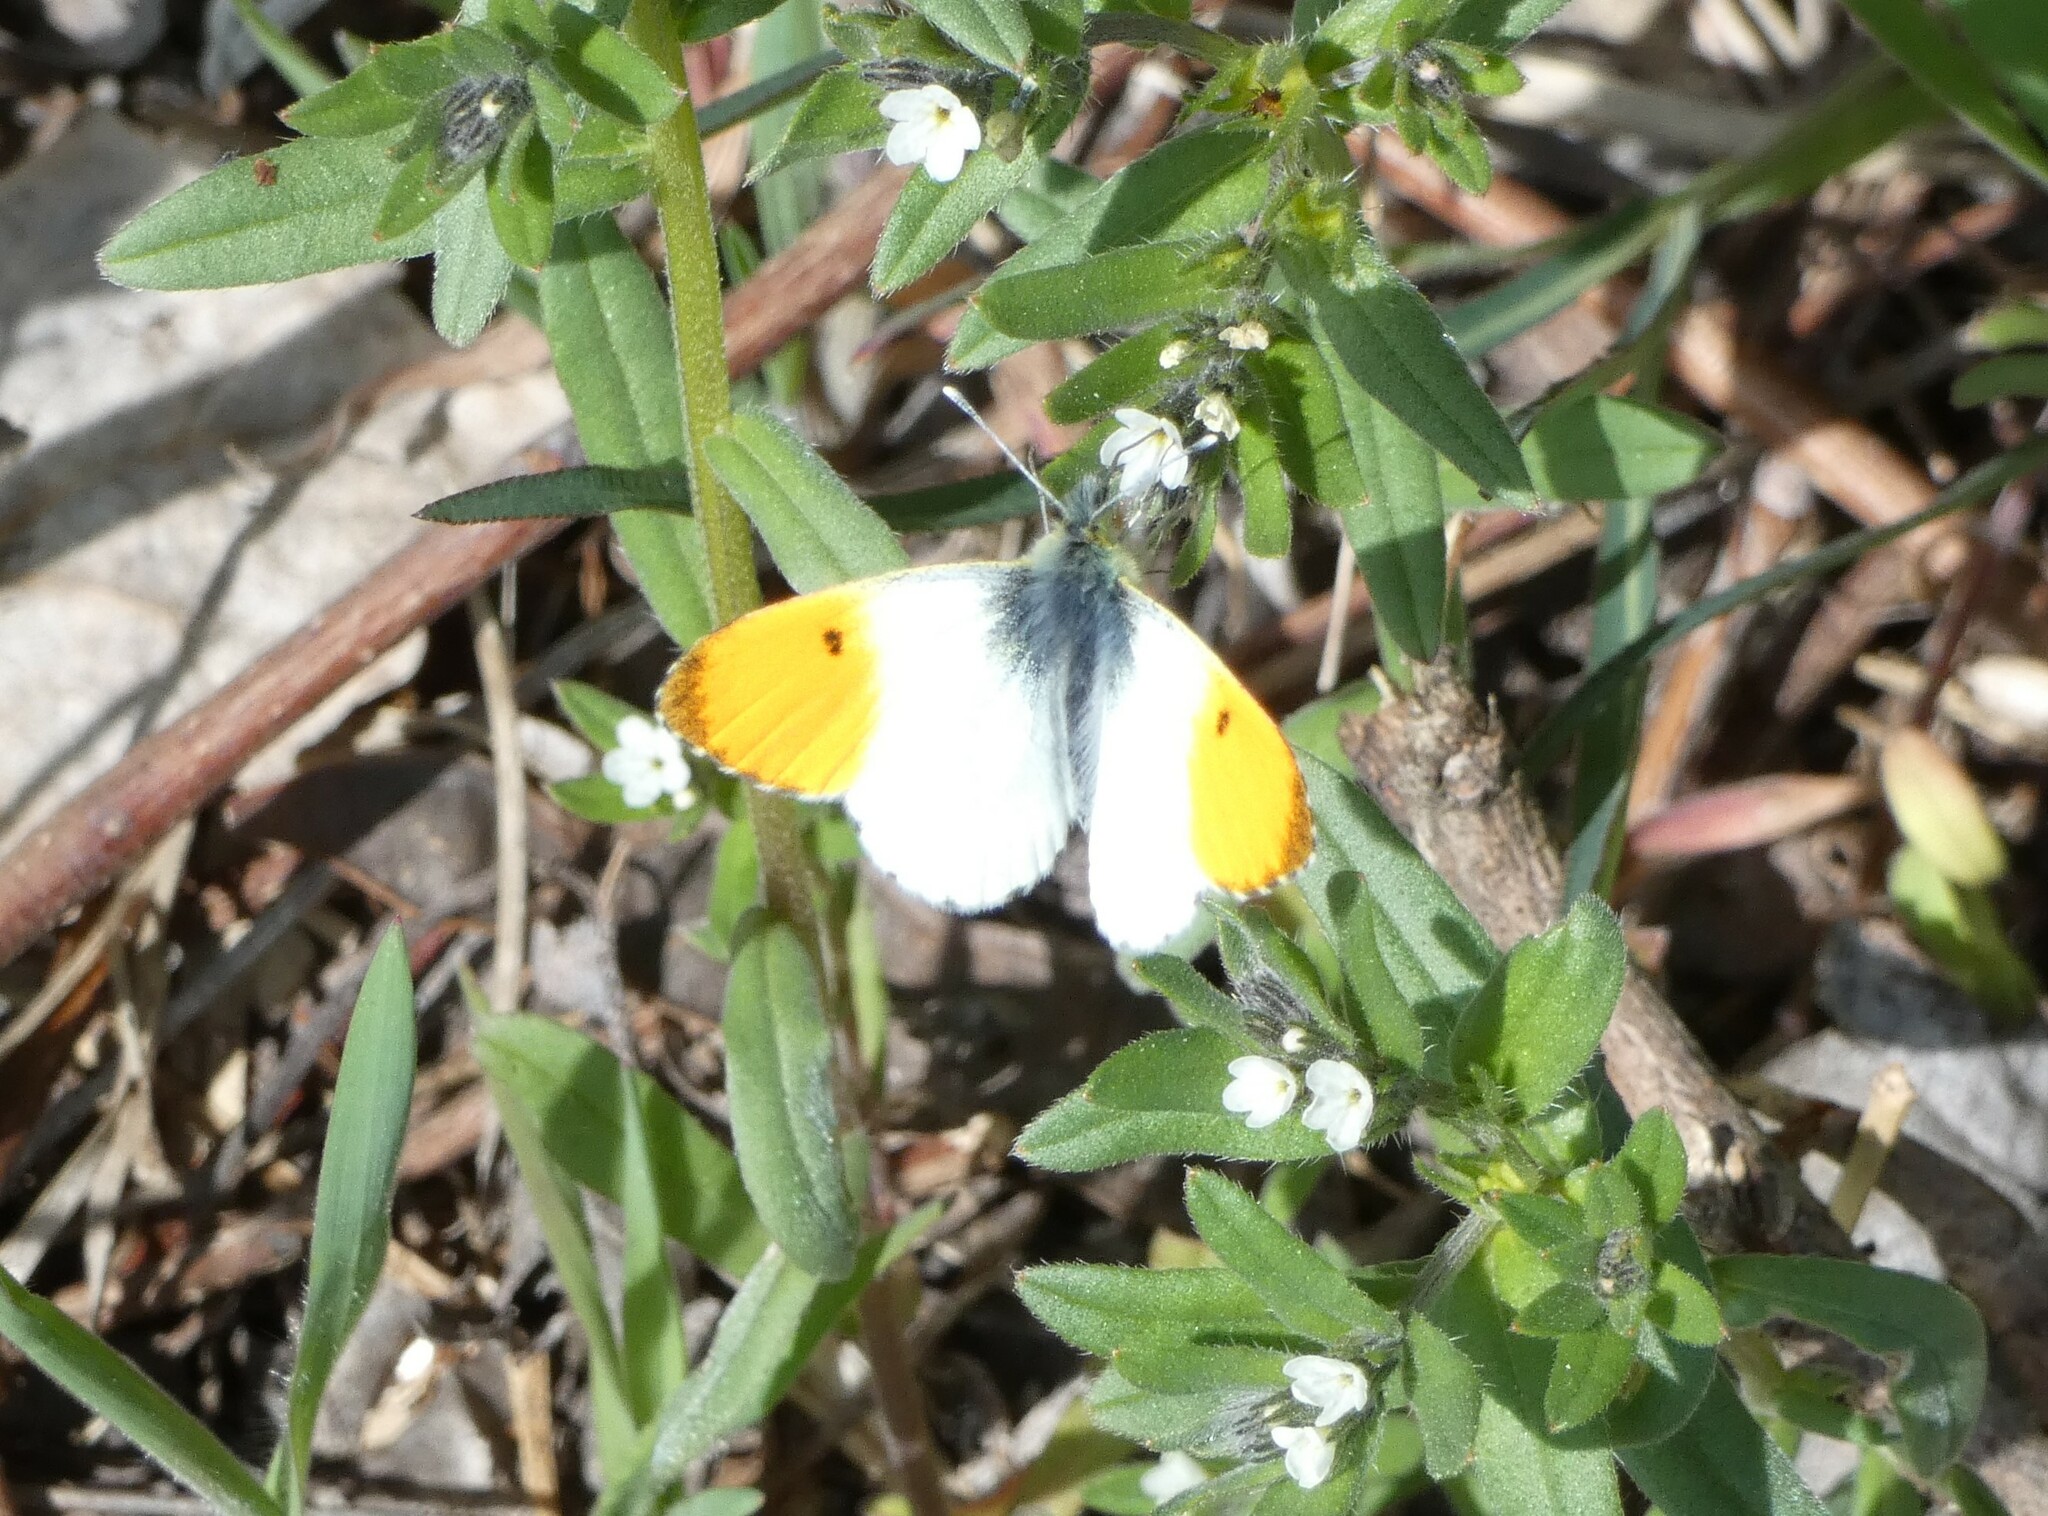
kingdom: Animalia
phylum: Arthropoda
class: Insecta
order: Lepidoptera
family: Pieridae
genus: Anthocharis
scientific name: Anthocharis cardamines
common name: Orange-tip
